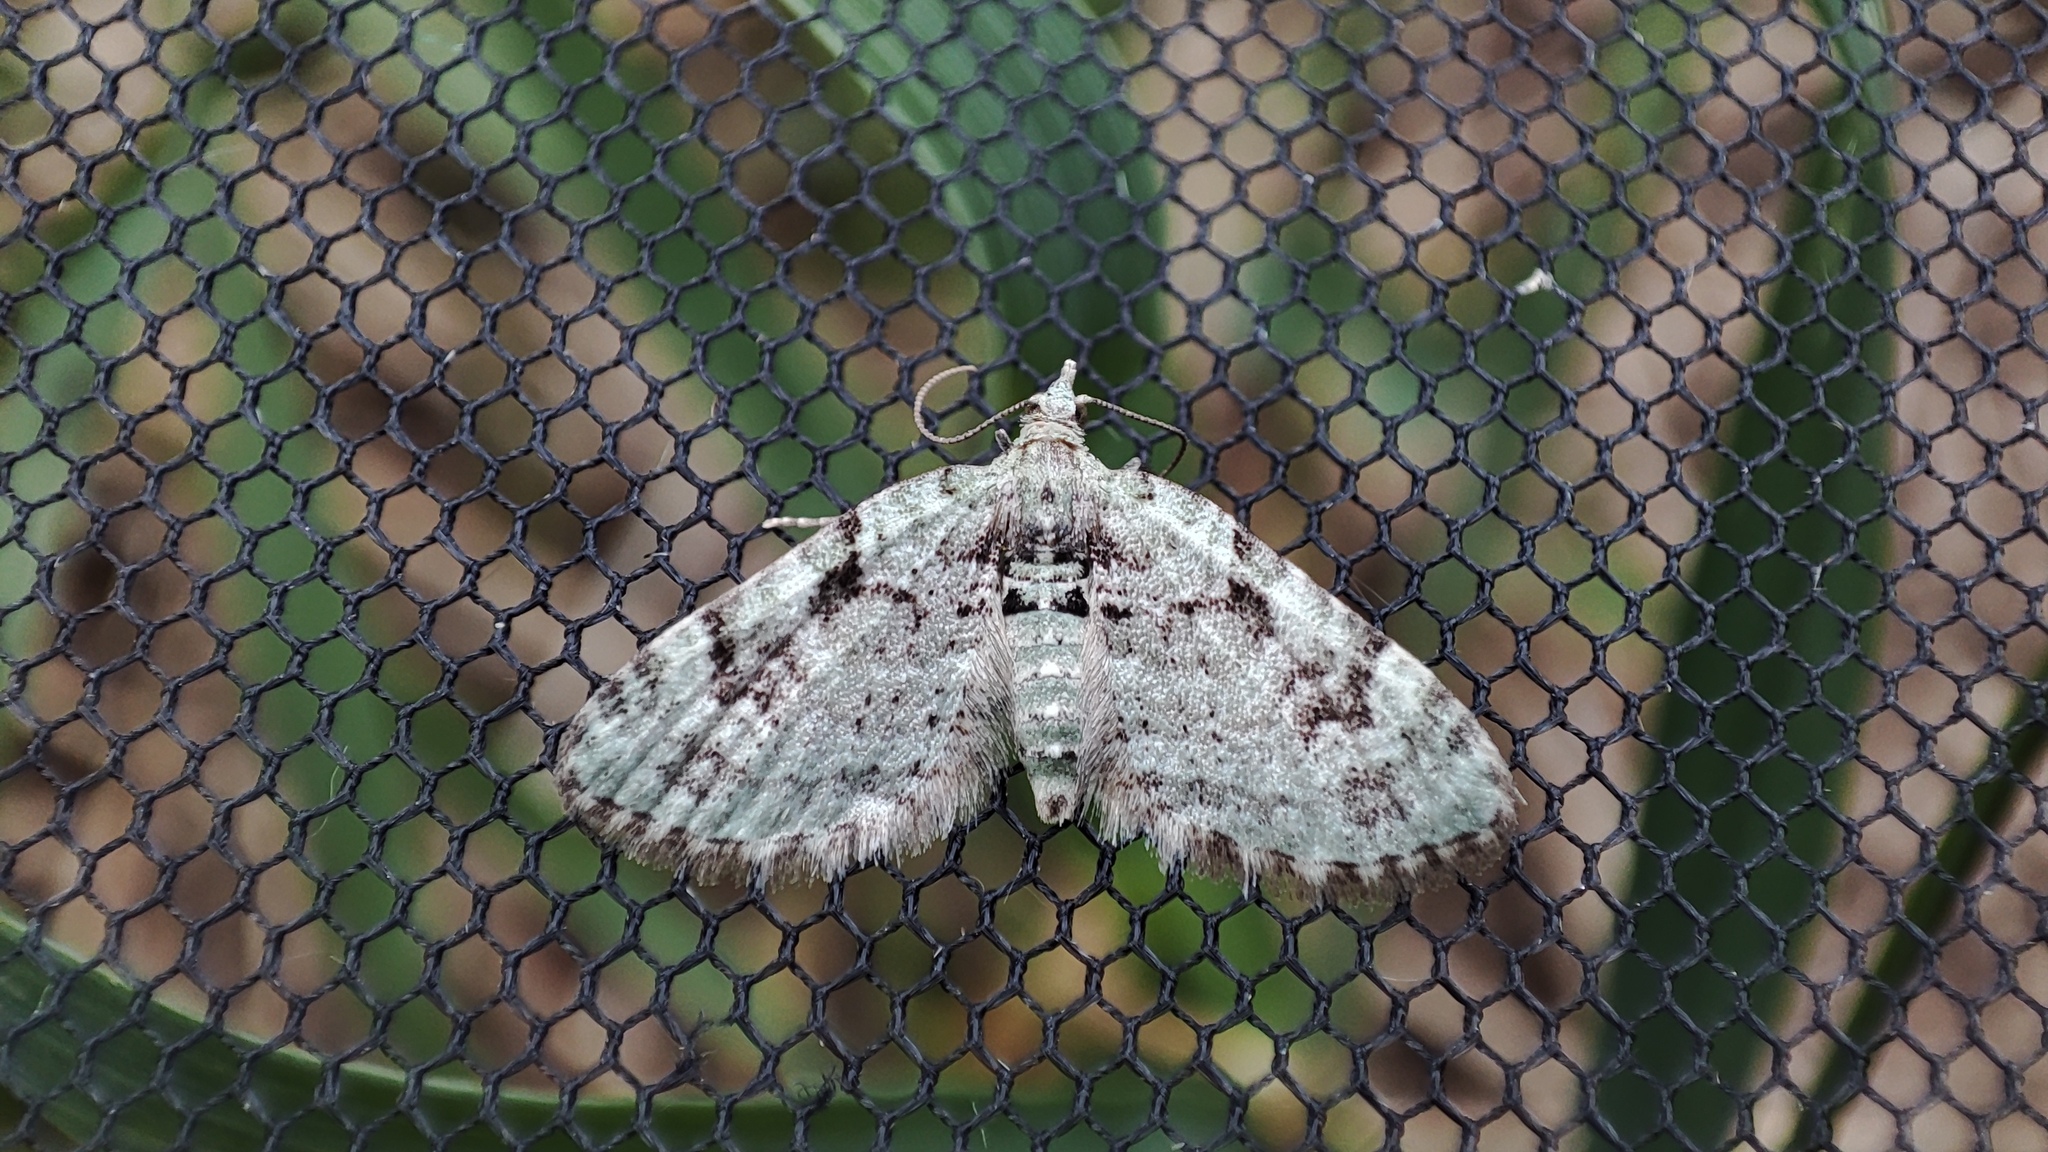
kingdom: Animalia
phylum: Arthropoda
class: Insecta
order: Lepidoptera
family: Geometridae
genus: Chloroclystis
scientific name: Chloroclystis v-ata
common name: V-pug
